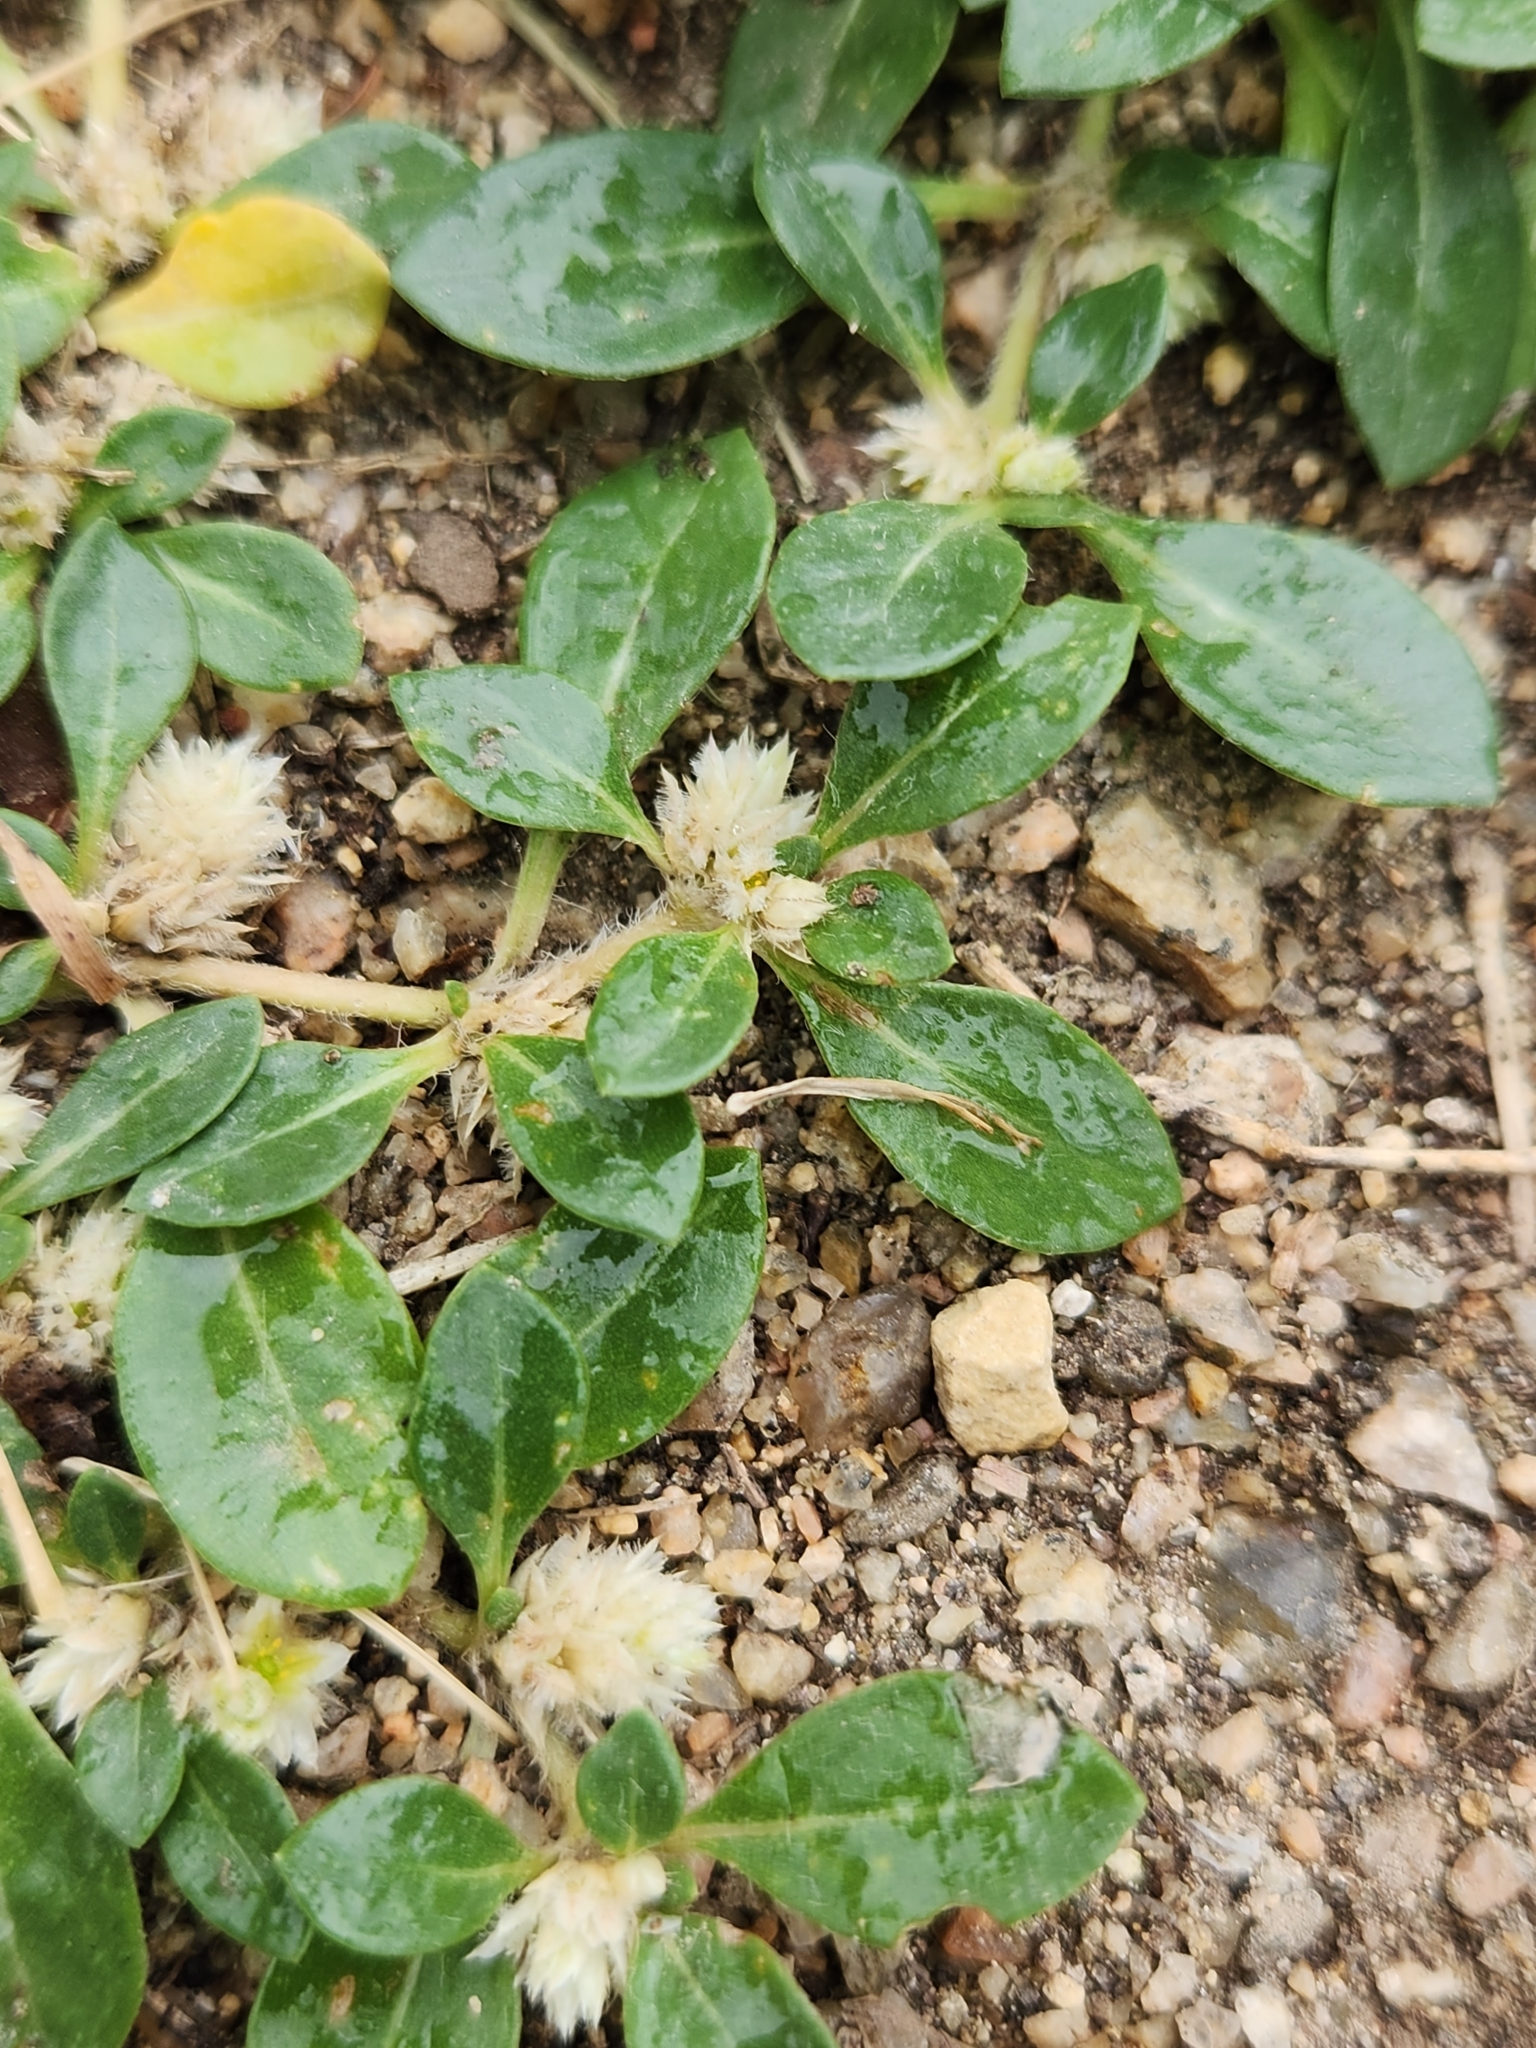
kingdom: Plantae
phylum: Tracheophyta
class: Magnoliopsida
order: Caryophyllales
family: Amaranthaceae
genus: Alternanthera
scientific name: Alternanthera caracasana
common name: Washerwoman
